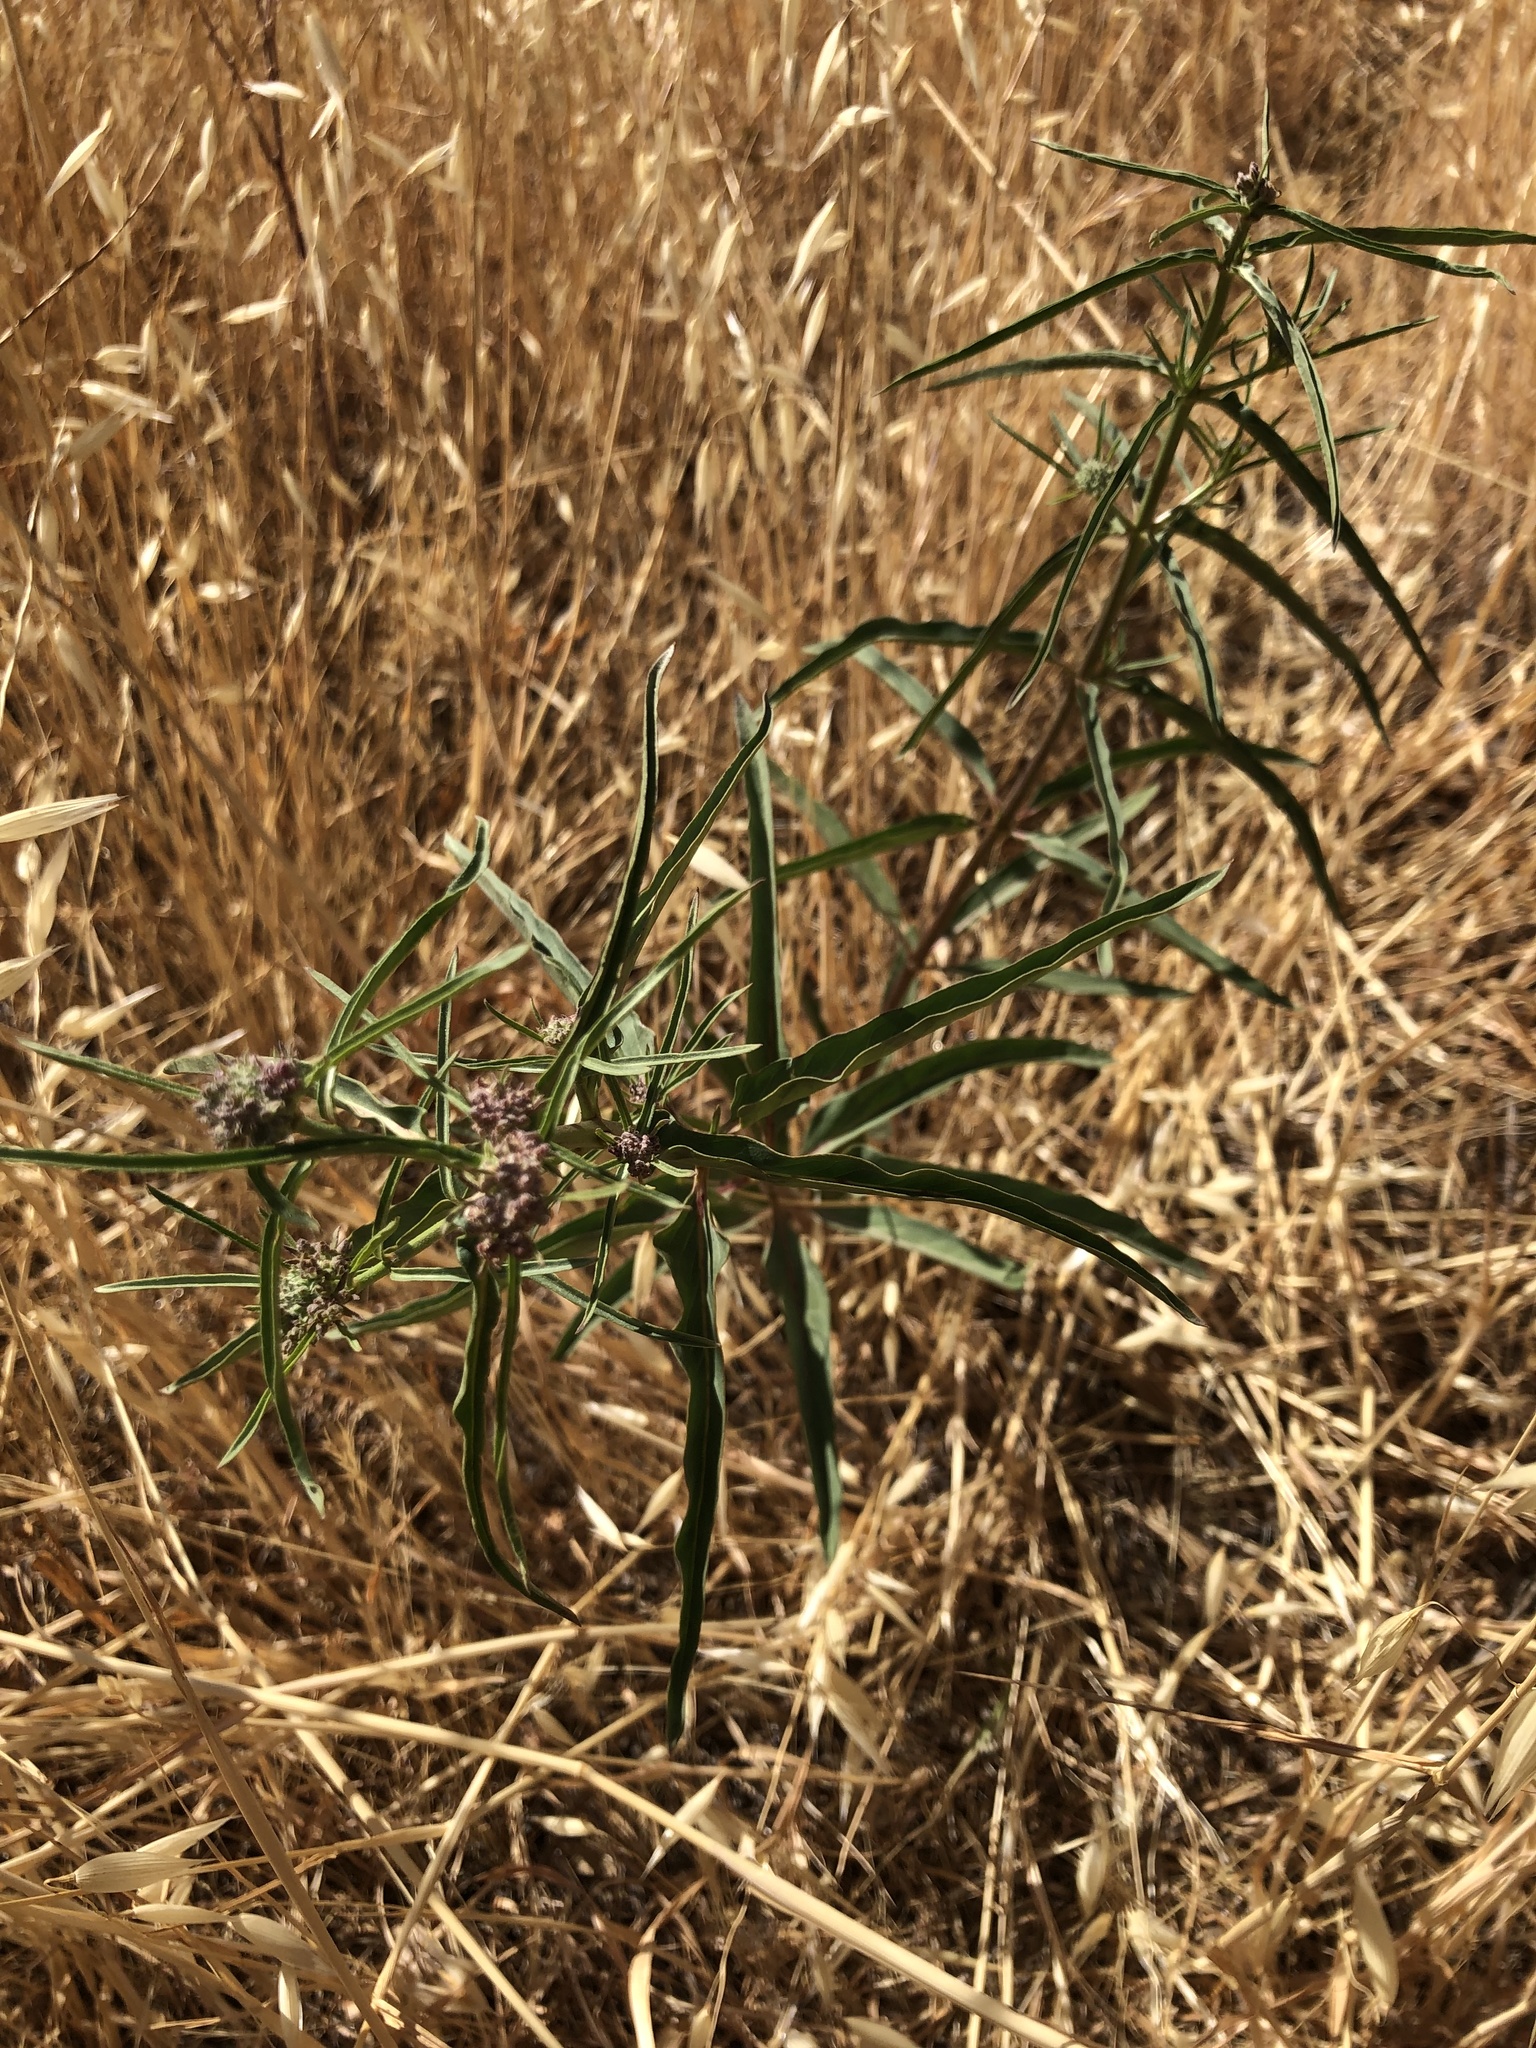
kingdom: Plantae
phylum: Tracheophyta
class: Magnoliopsida
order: Gentianales
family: Apocynaceae
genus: Asclepias
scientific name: Asclepias fascicularis
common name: Mexican milkweed
